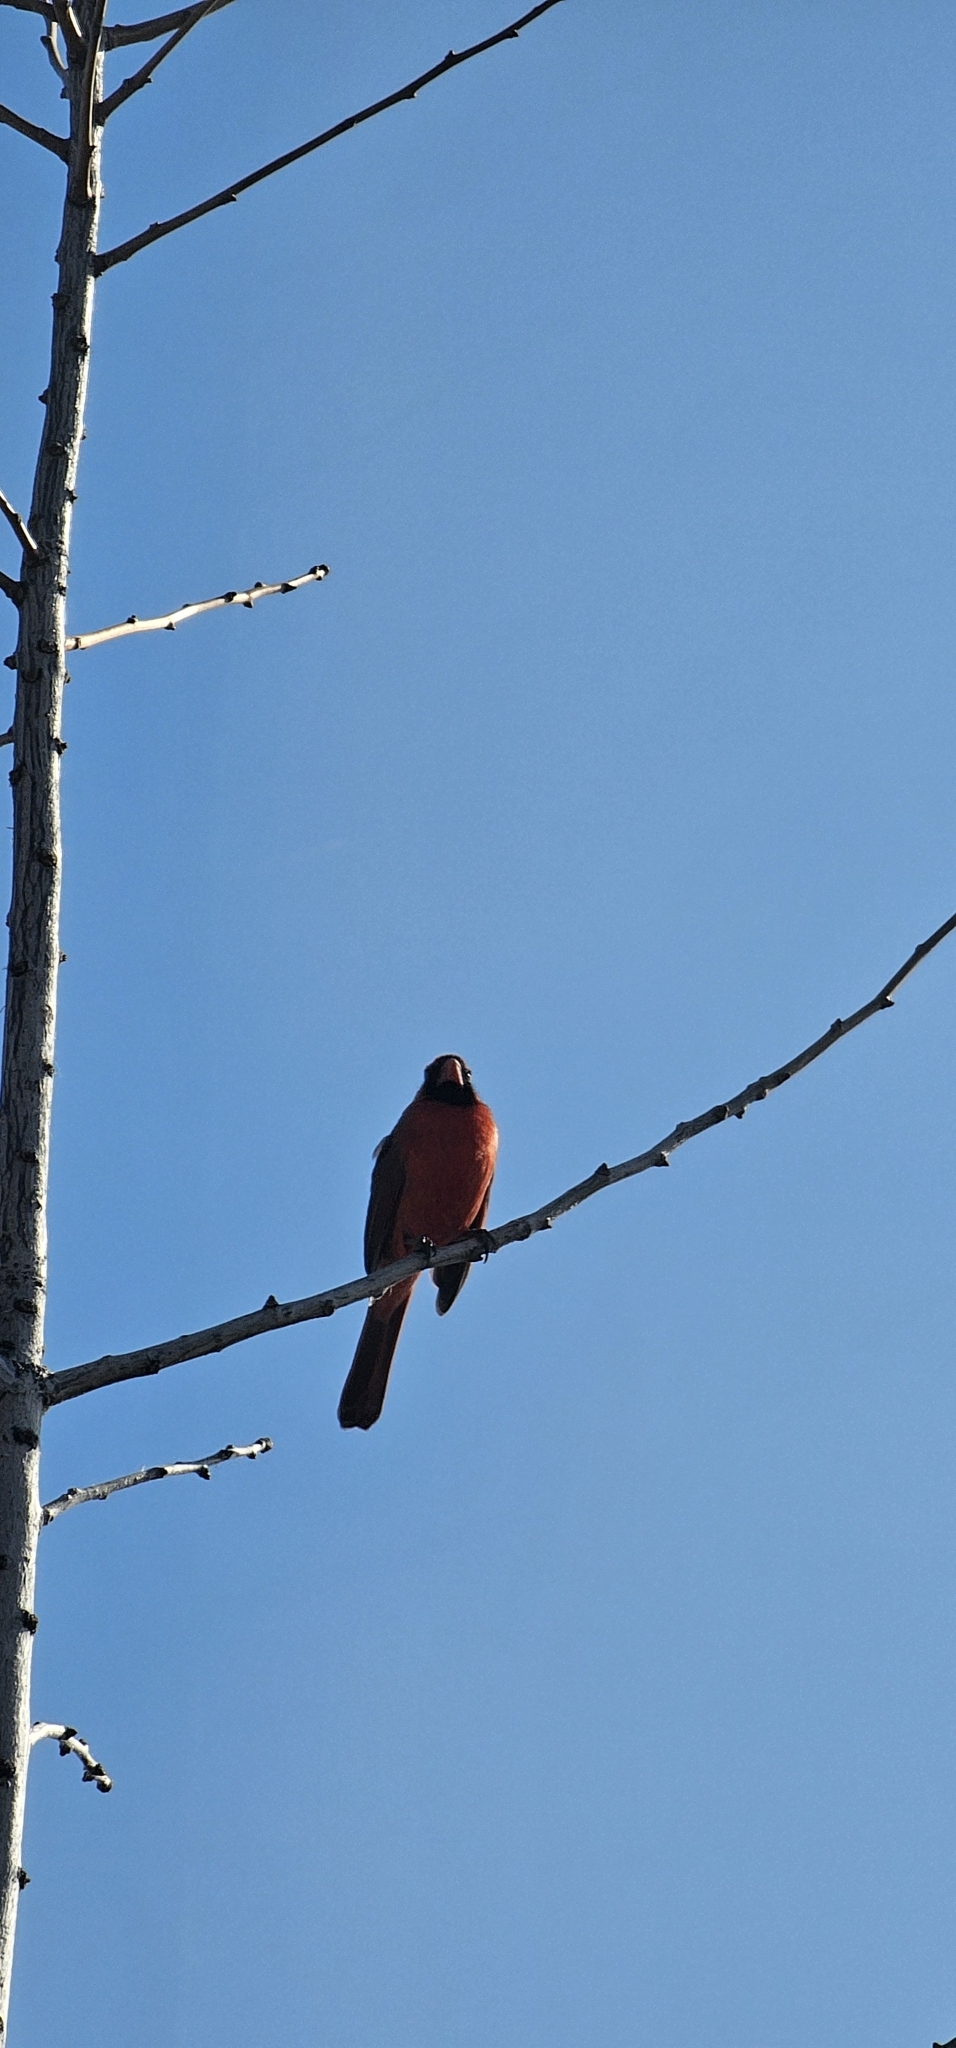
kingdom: Animalia
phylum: Chordata
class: Aves
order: Passeriformes
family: Cardinalidae
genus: Cardinalis
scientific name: Cardinalis cardinalis
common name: Northern cardinal
